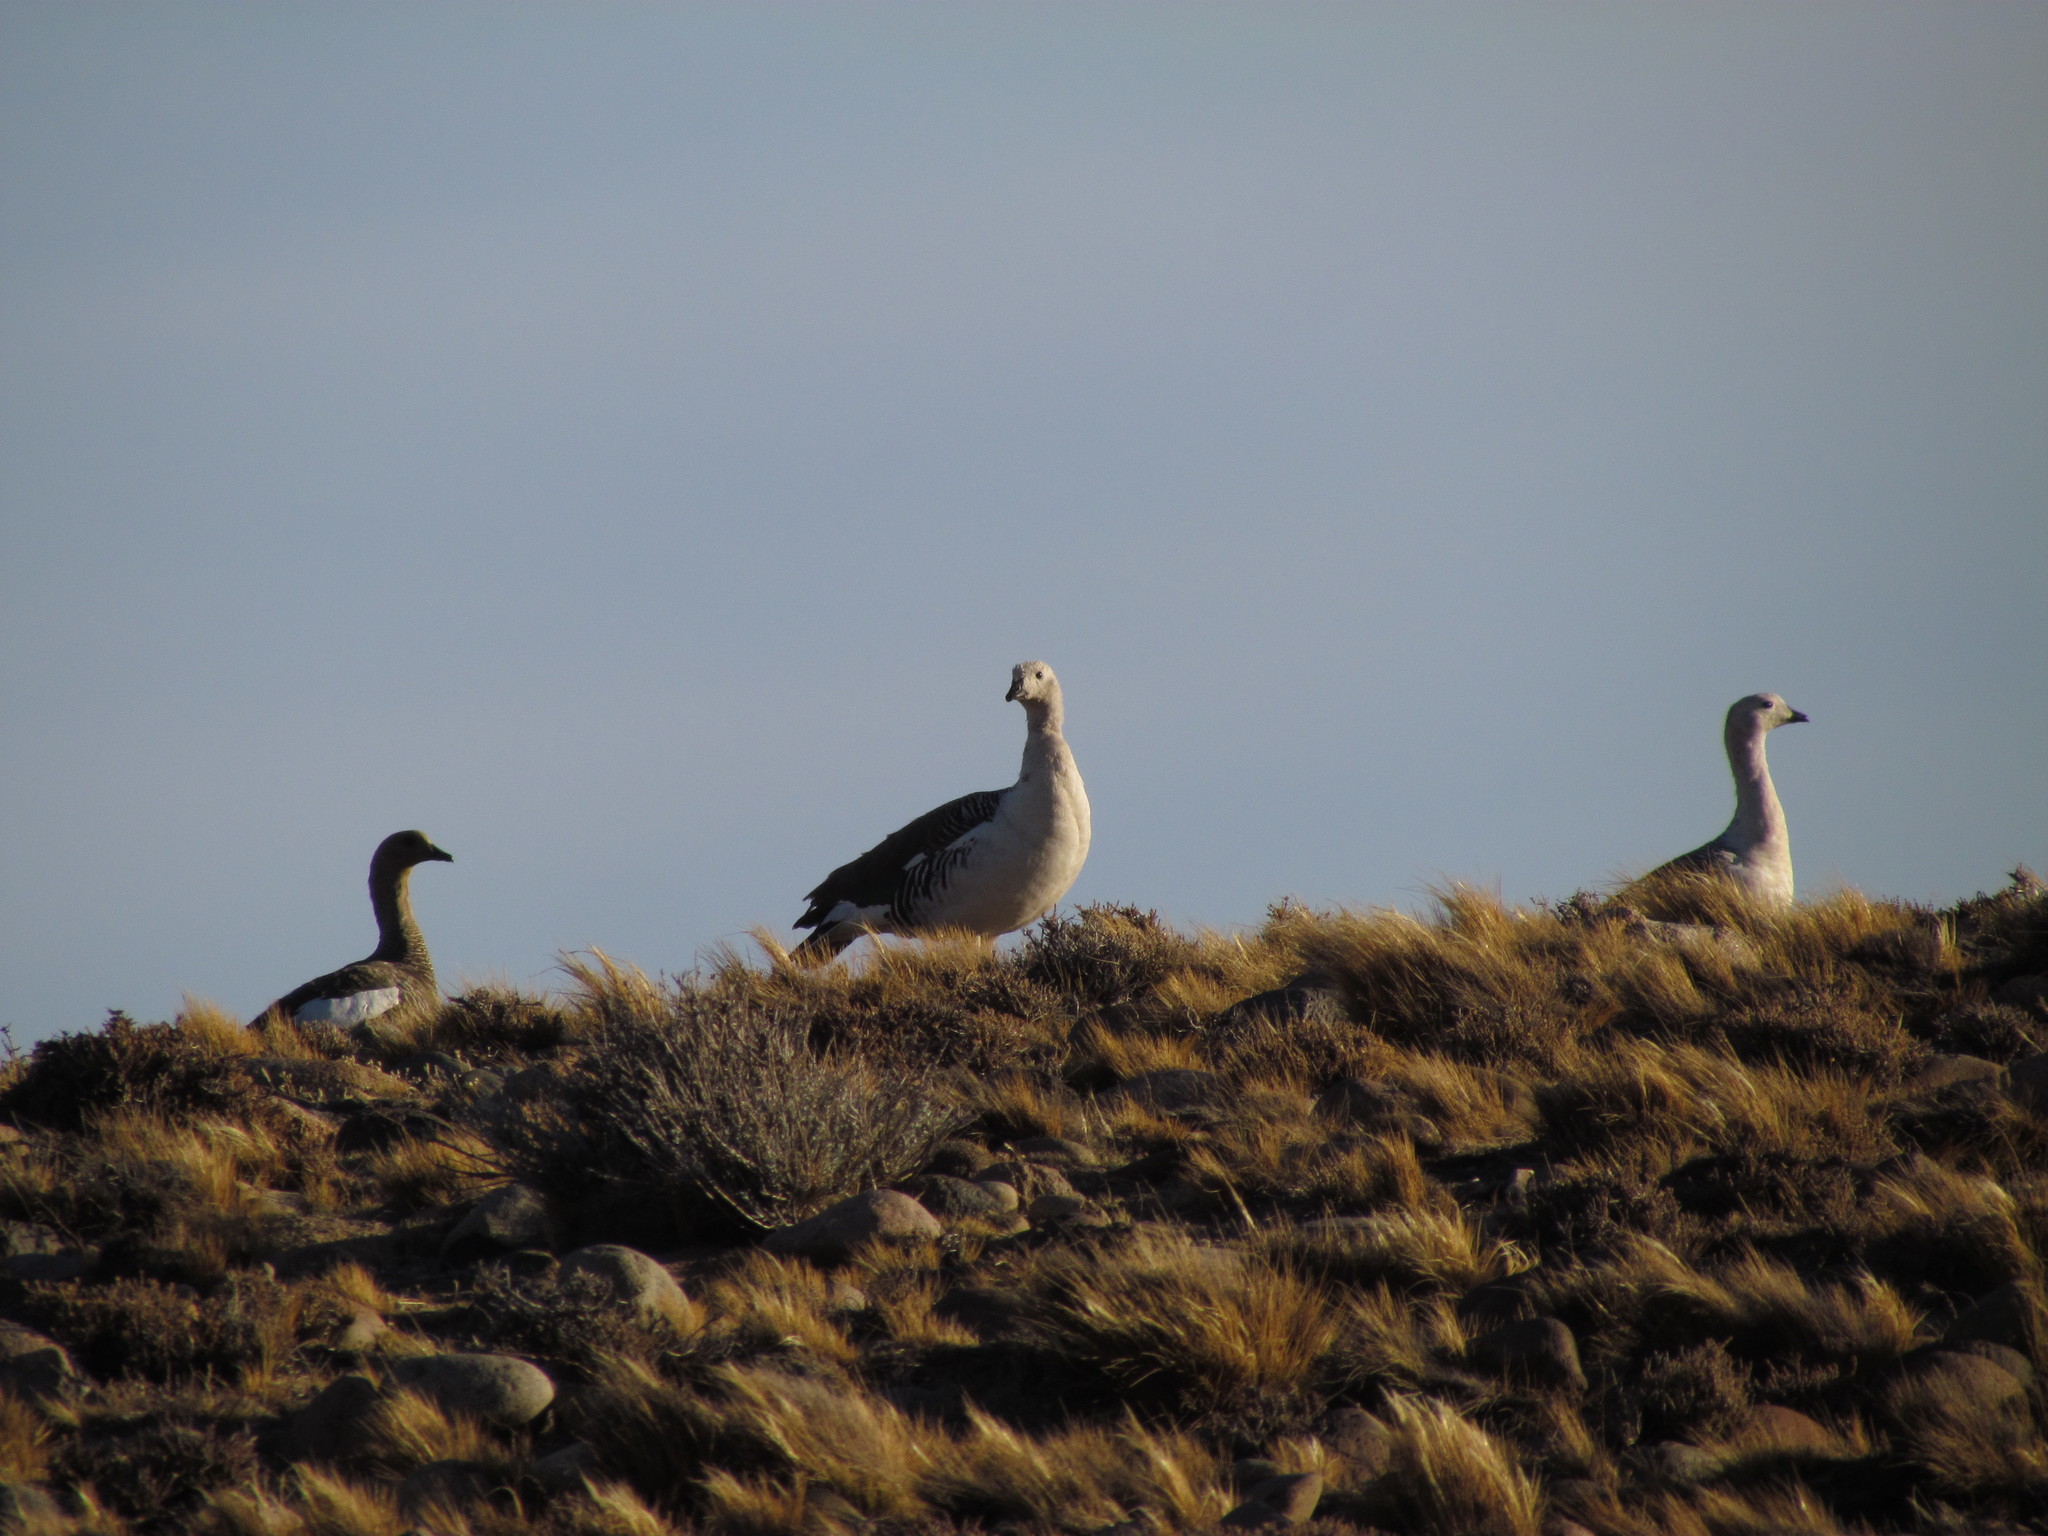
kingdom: Animalia
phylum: Chordata
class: Aves
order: Anseriformes
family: Anatidae
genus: Chloephaga
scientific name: Chloephaga picta
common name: Upland goose
